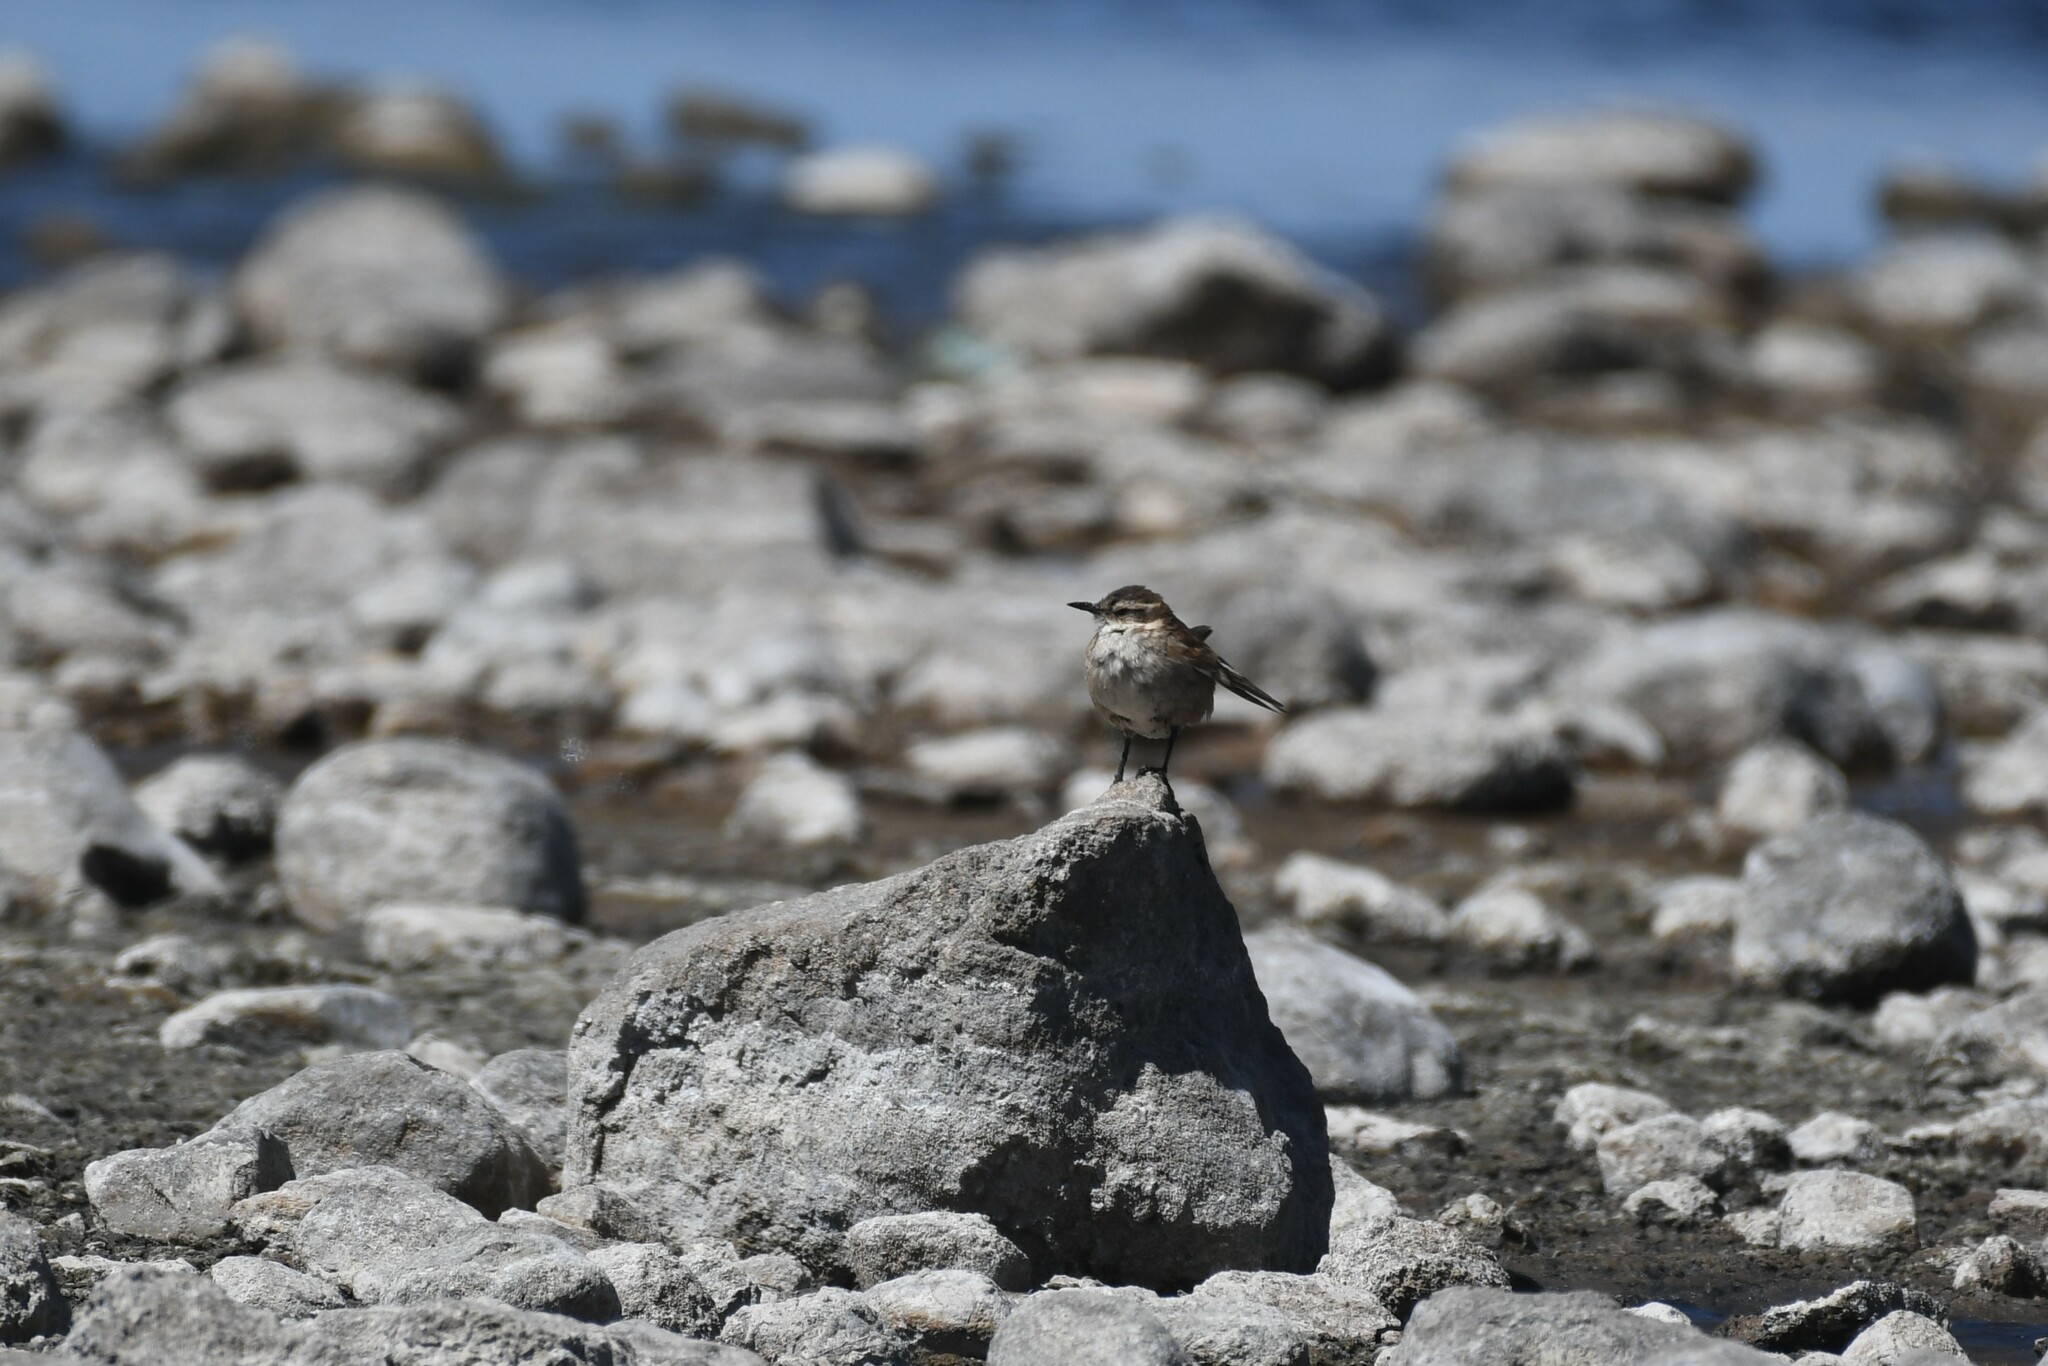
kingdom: Animalia
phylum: Chordata
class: Aves
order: Passeriformes
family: Furnariidae
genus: Cinclodes
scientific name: Cinclodes fuscus
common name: Buff-winged cinclodes
